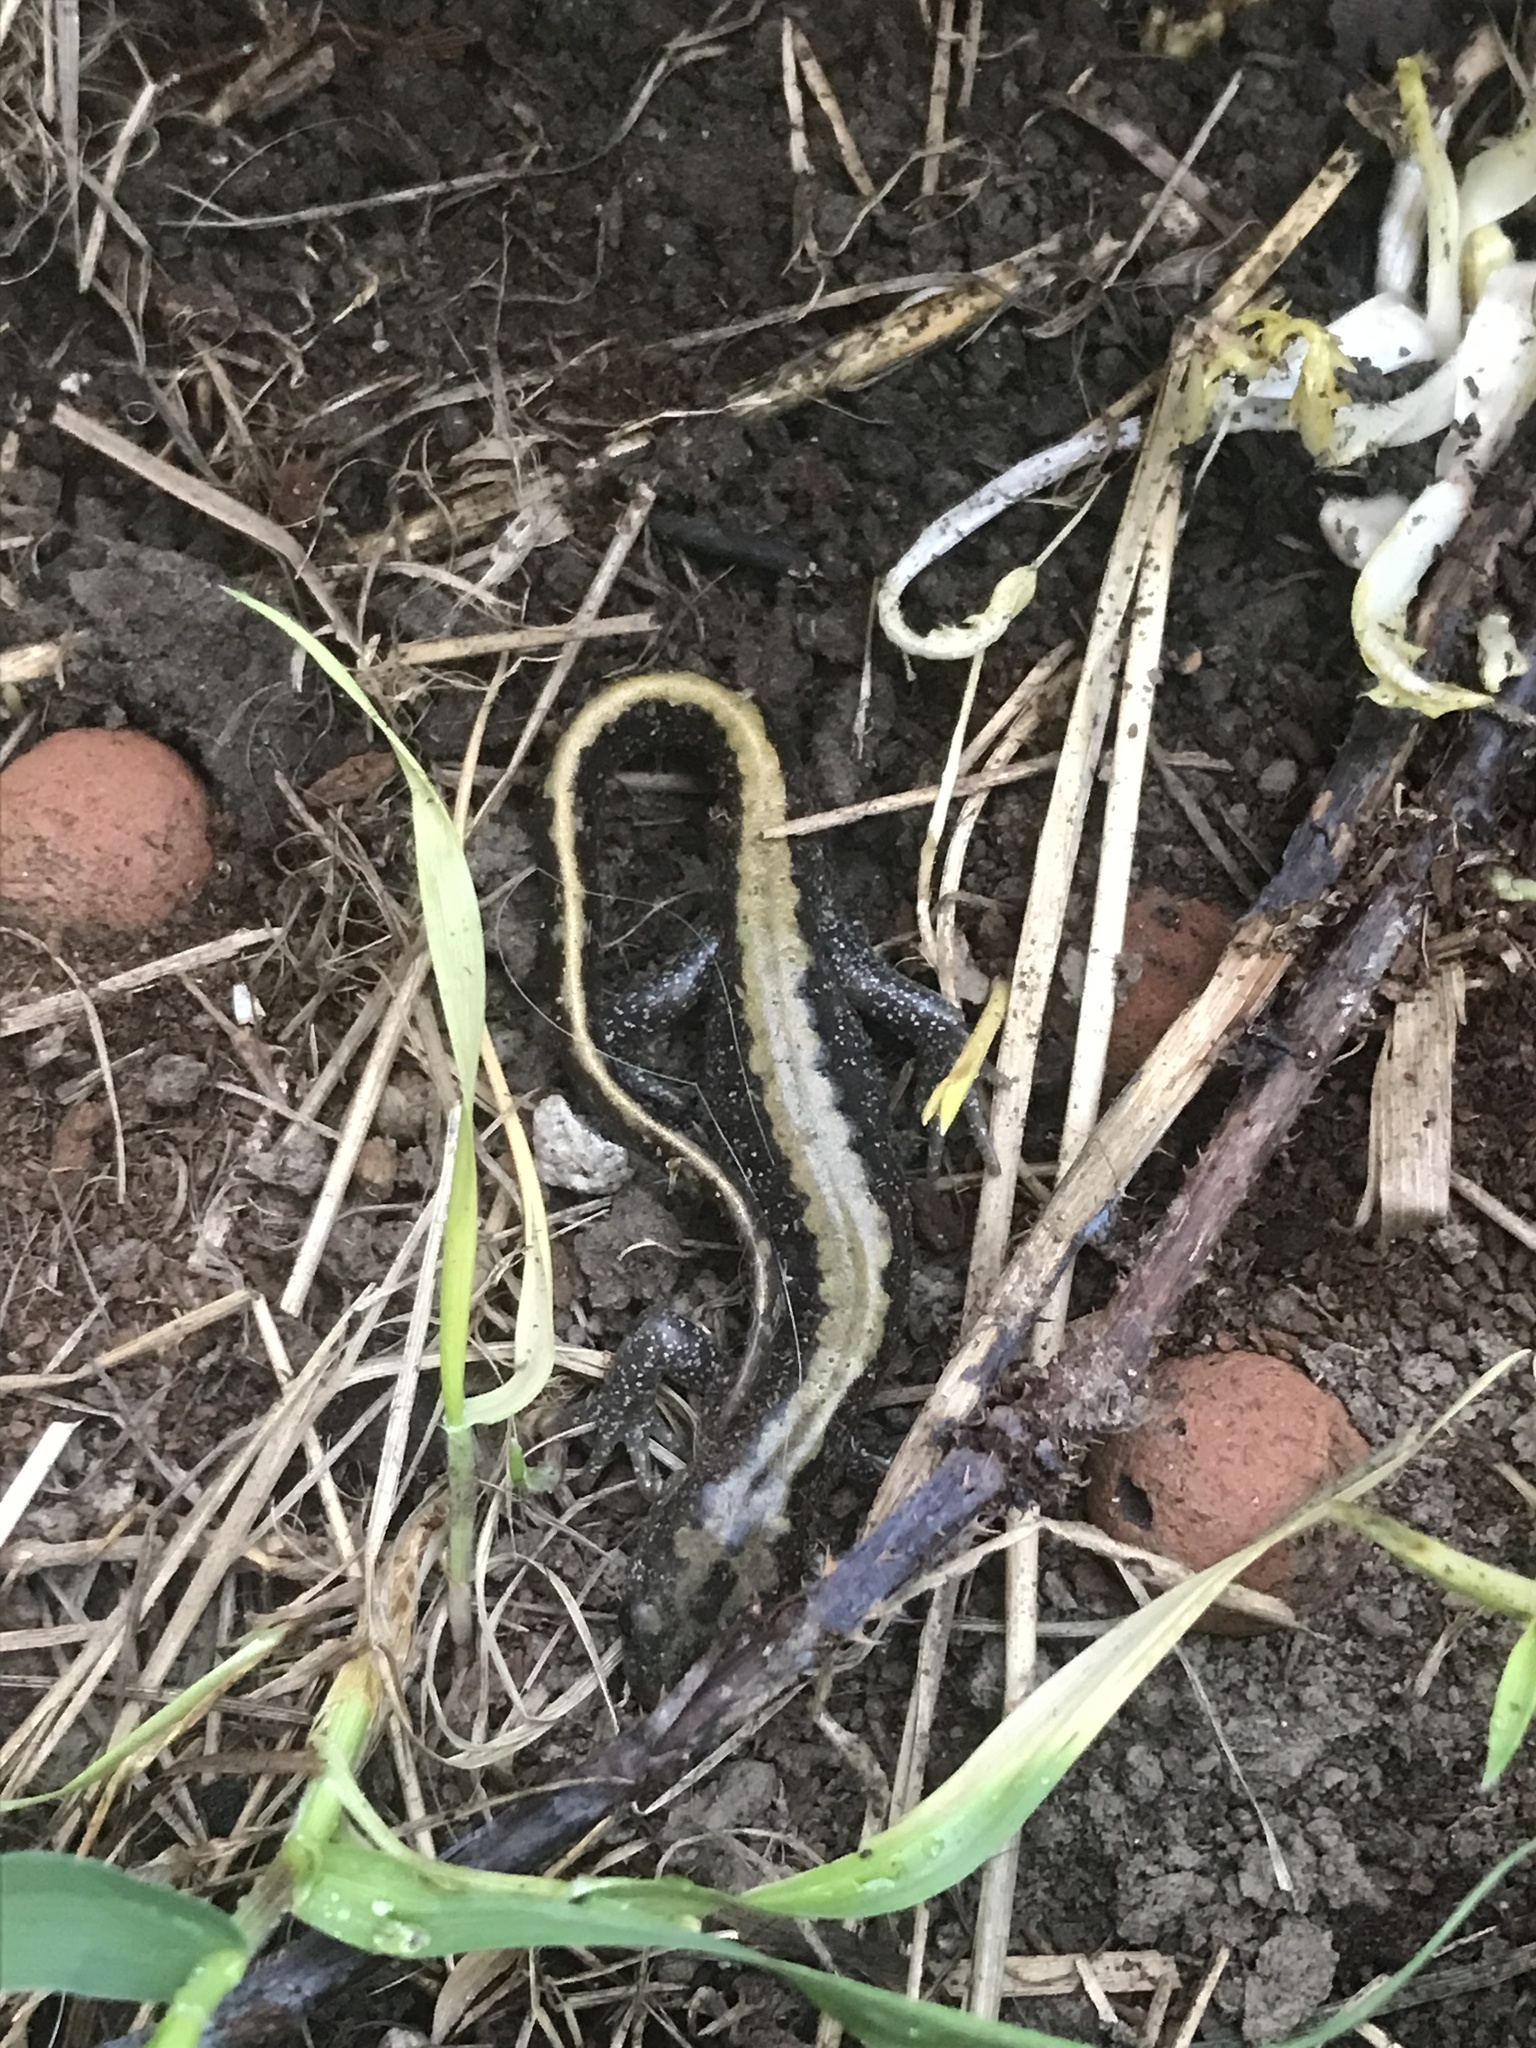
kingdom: Animalia
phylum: Chordata
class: Amphibia
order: Caudata
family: Ambystomatidae
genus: Ambystoma
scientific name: Ambystoma macrodactylum
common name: Long-toed salamander
